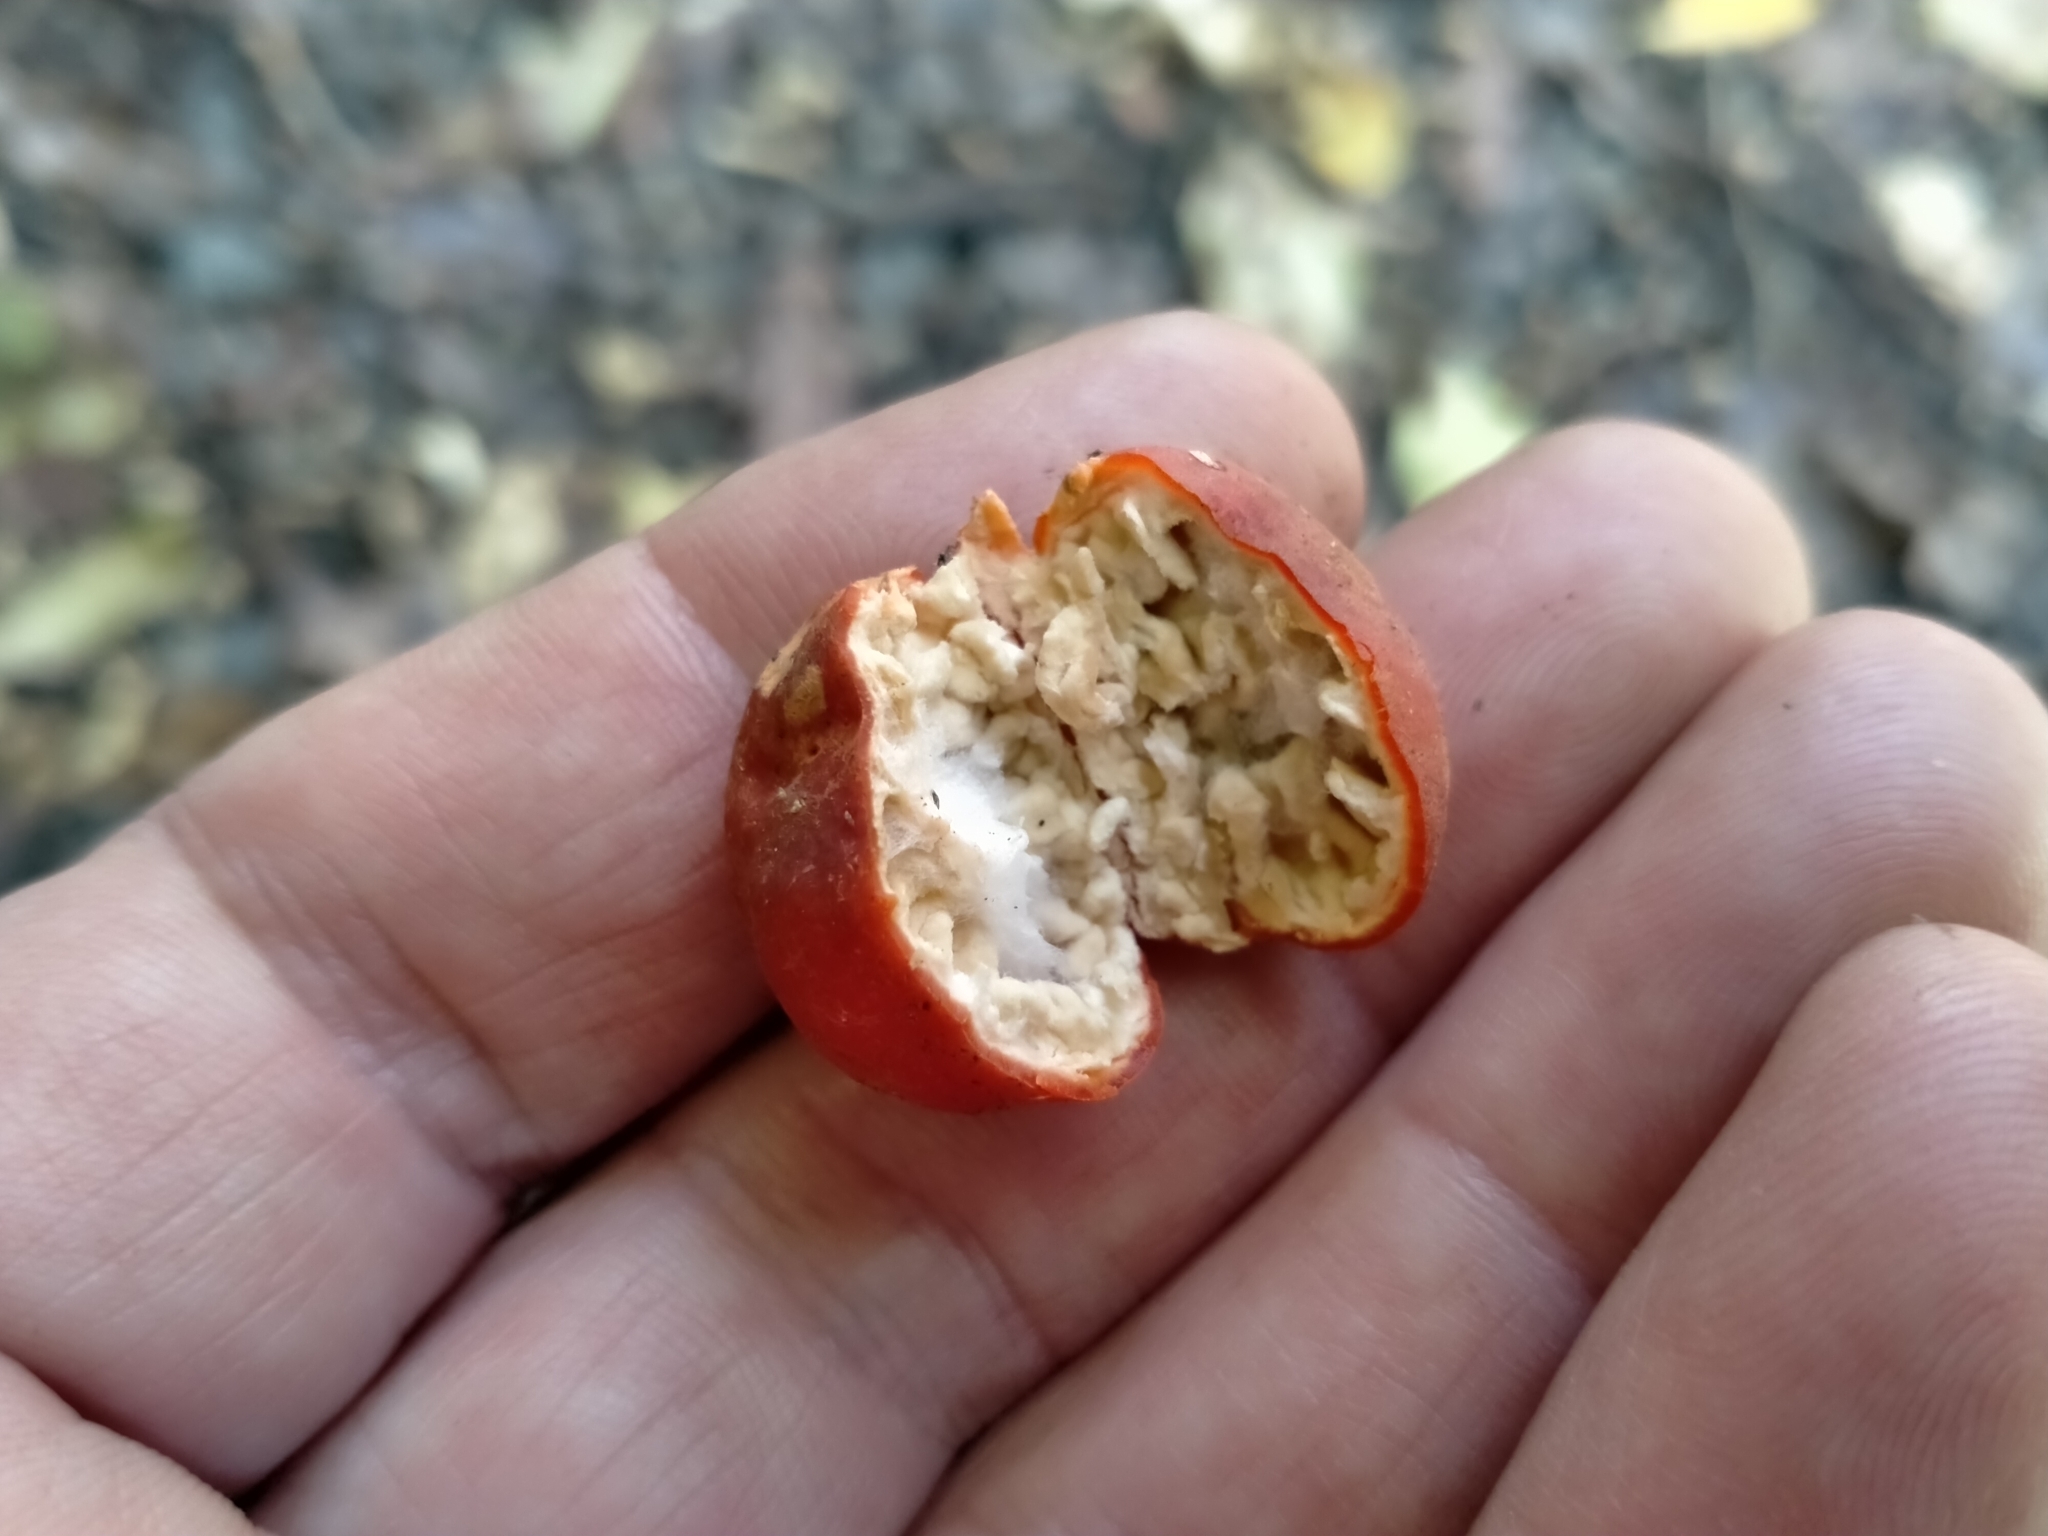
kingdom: Fungi
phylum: Ascomycota
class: Pezizomycetes
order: Pezizales
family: Pyronemataceae
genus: Paurocotylis
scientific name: Paurocotylis pila
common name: Scarlet berry truffle
